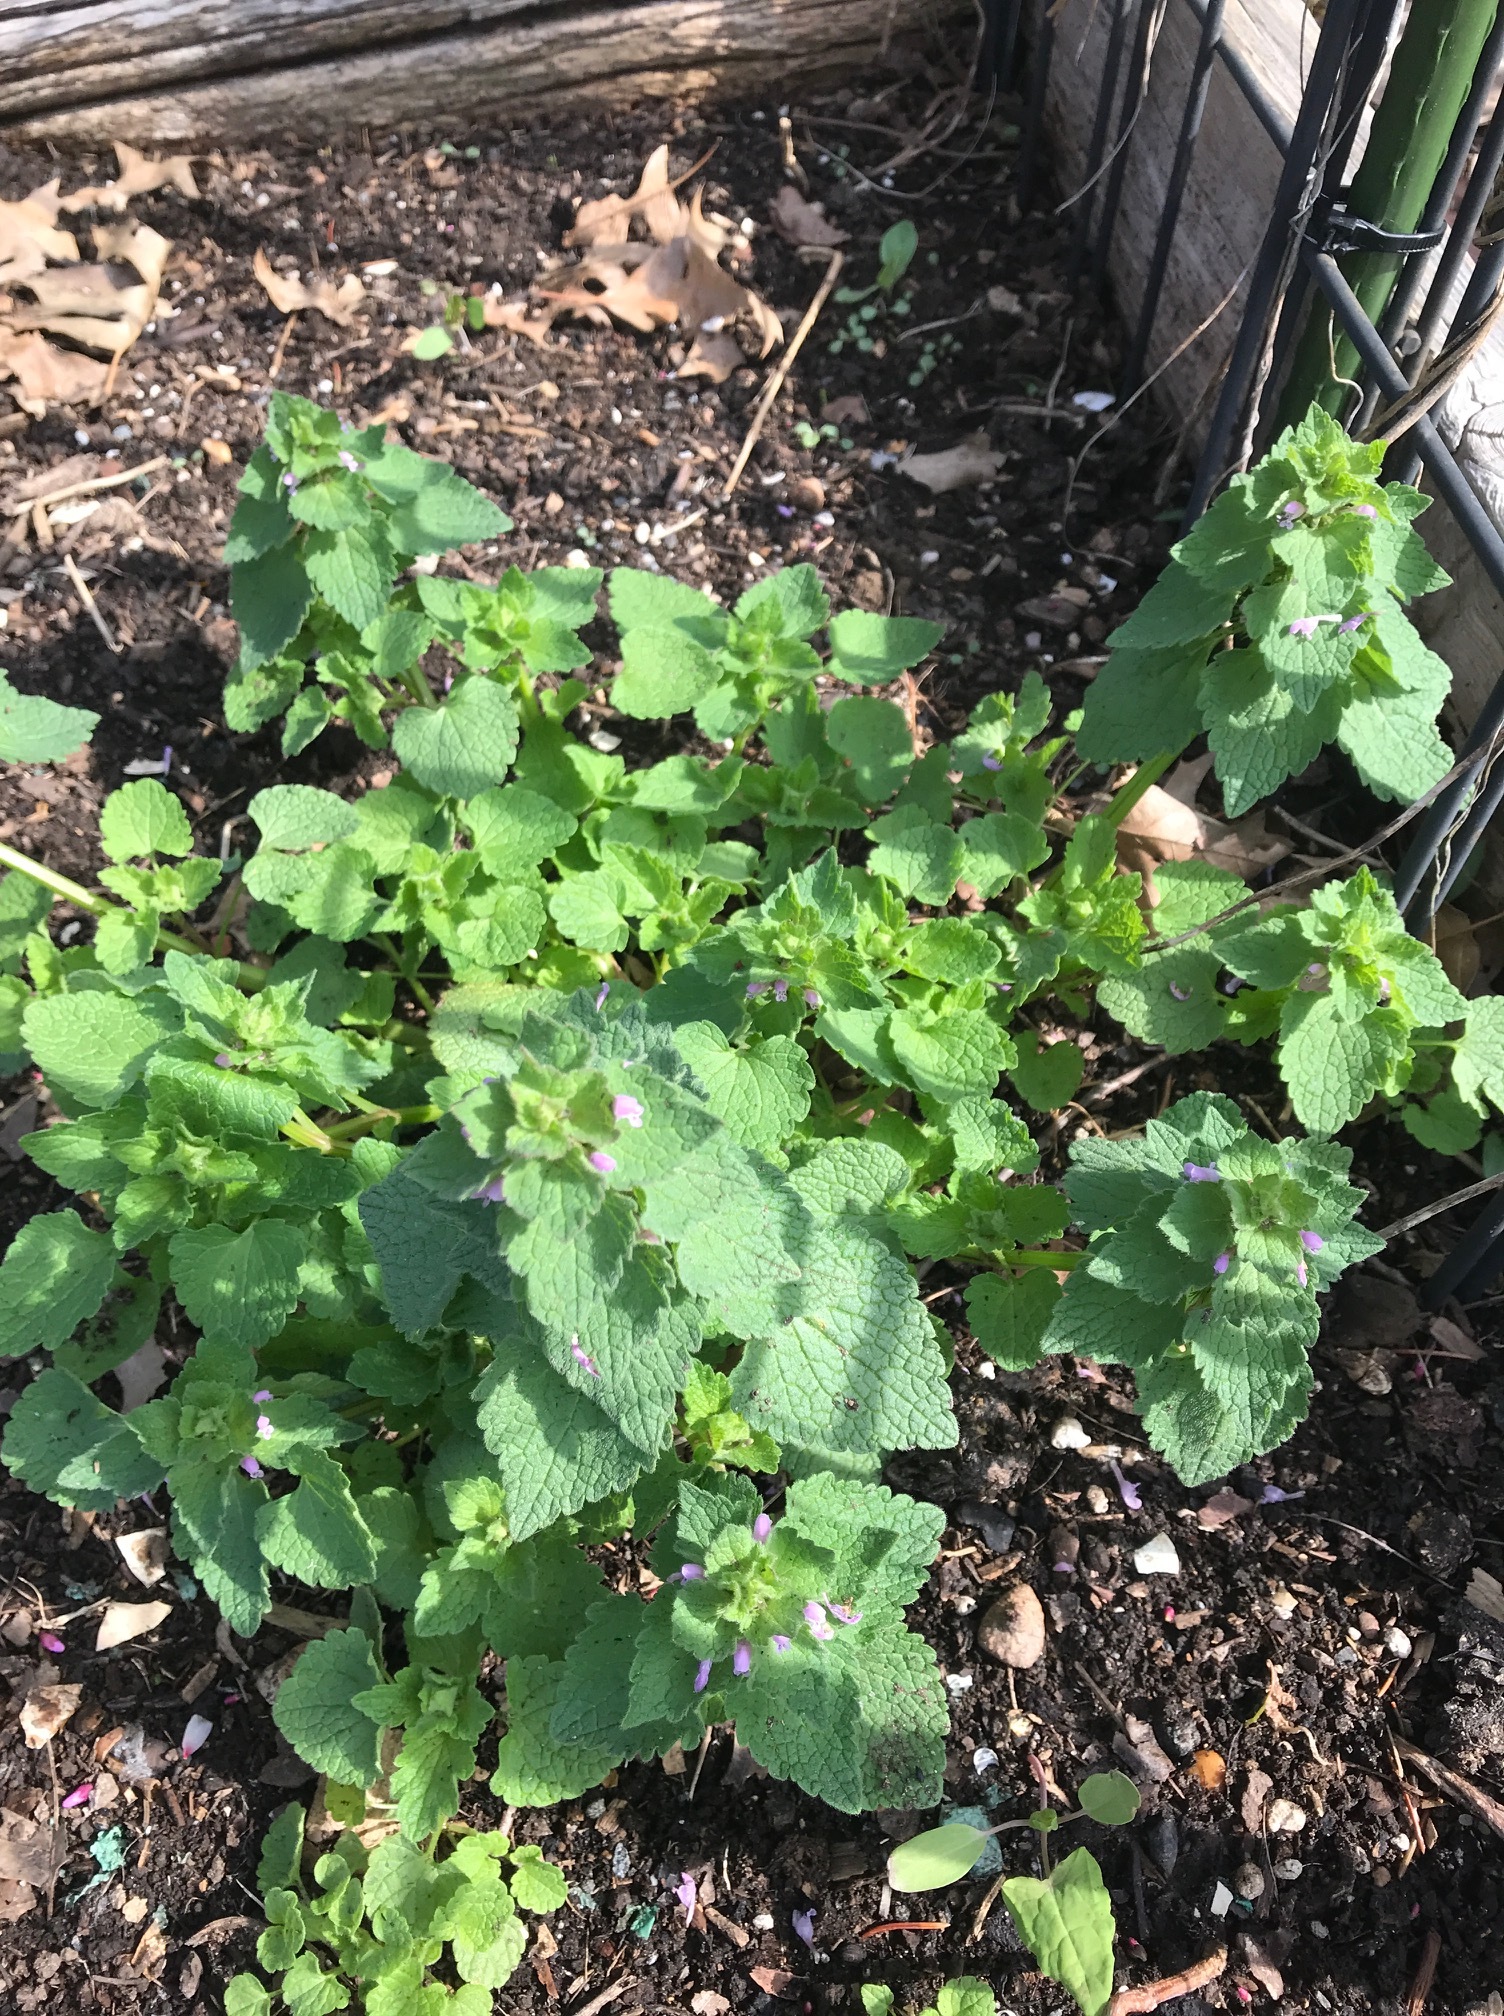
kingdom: Plantae
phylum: Tracheophyta
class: Magnoliopsida
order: Lamiales
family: Lamiaceae
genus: Lamium
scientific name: Lamium purpureum
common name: Red dead-nettle
